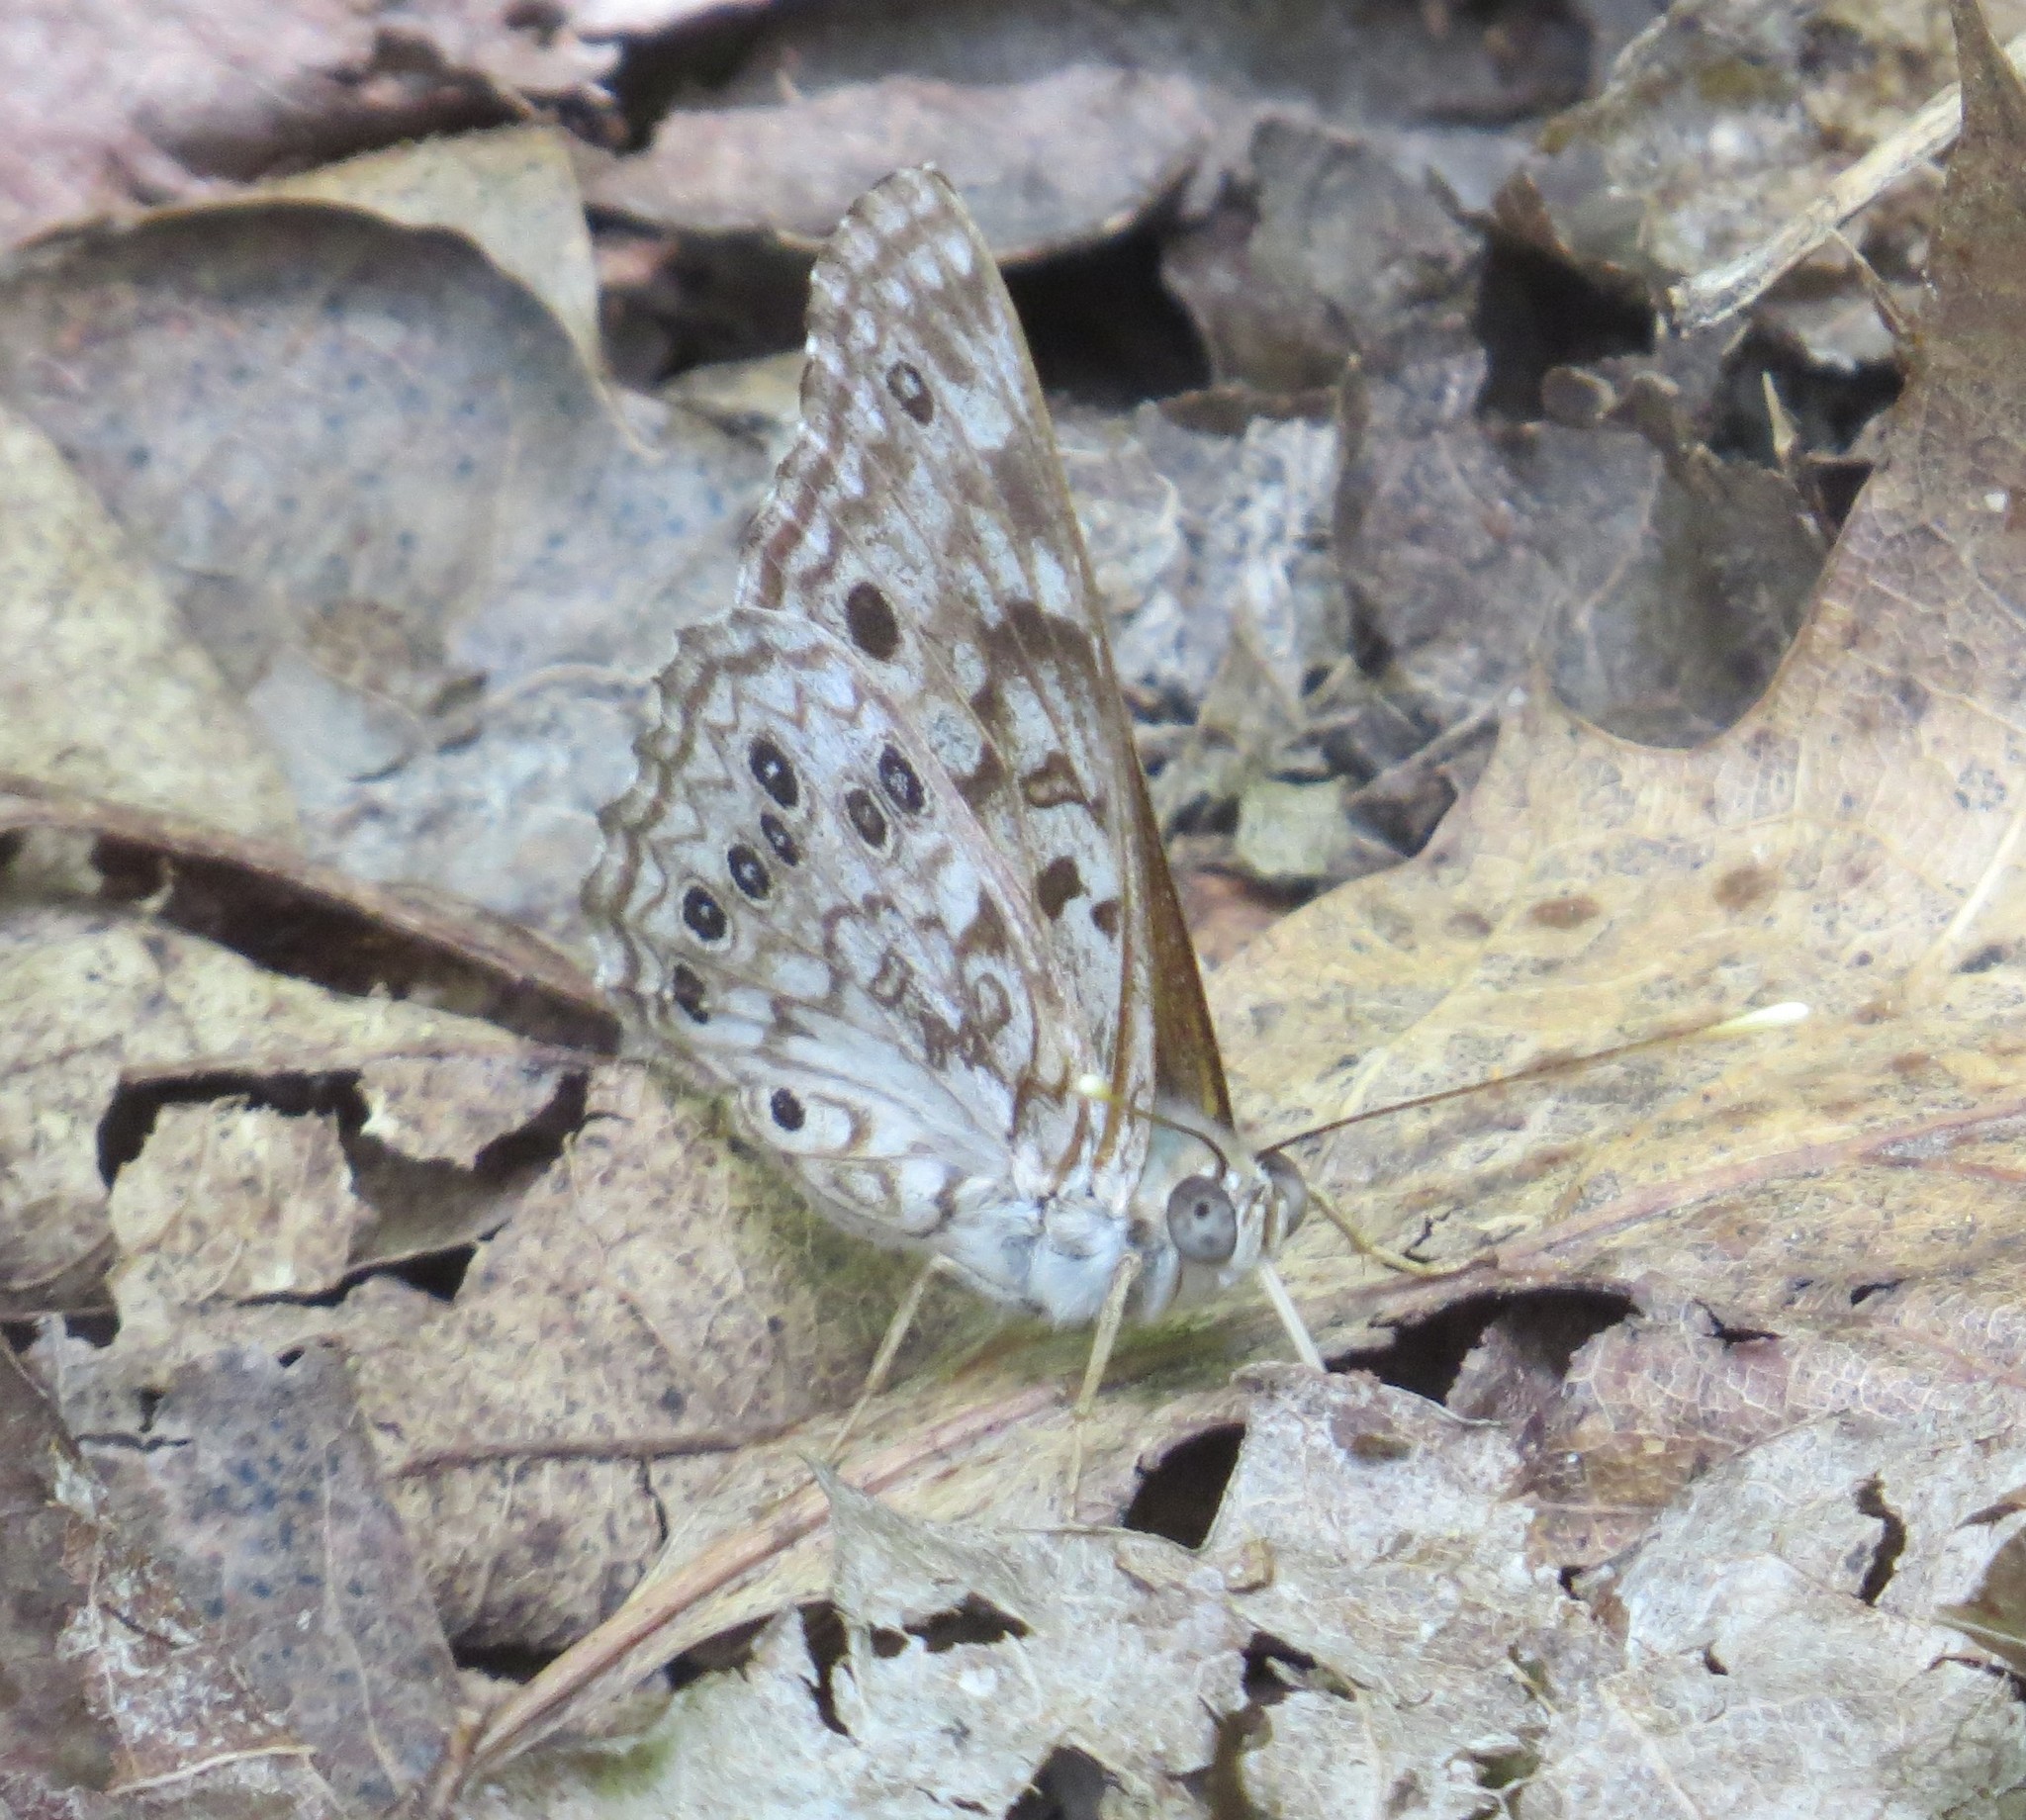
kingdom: Animalia
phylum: Arthropoda
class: Insecta
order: Lepidoptera
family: Nymphalidae
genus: Asterocampa
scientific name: Asterocampa celtis
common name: Hackberry emperor
